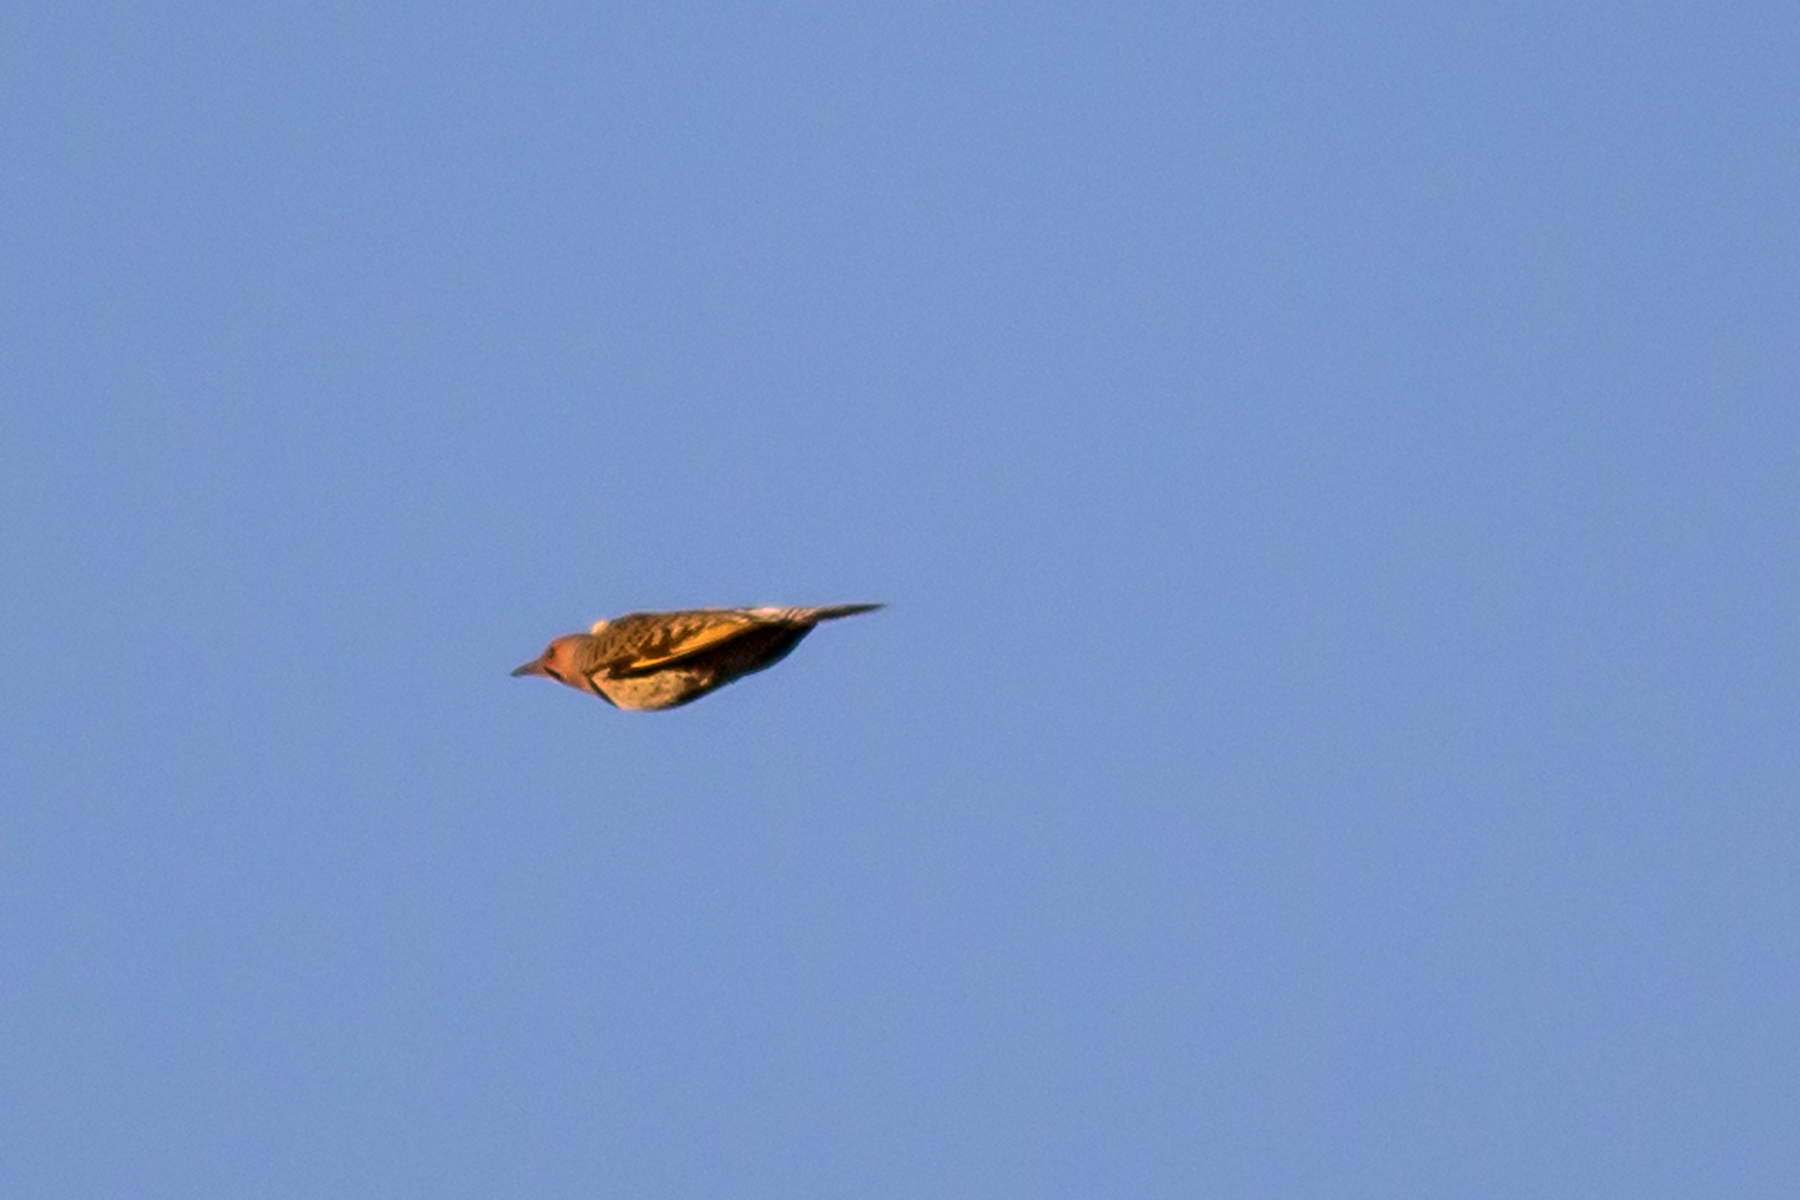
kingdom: Animalia
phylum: Chordata
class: Aves
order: Piciformes
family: Picidae
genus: Colaptes
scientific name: Colaptes auratus
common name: Northern flicker
